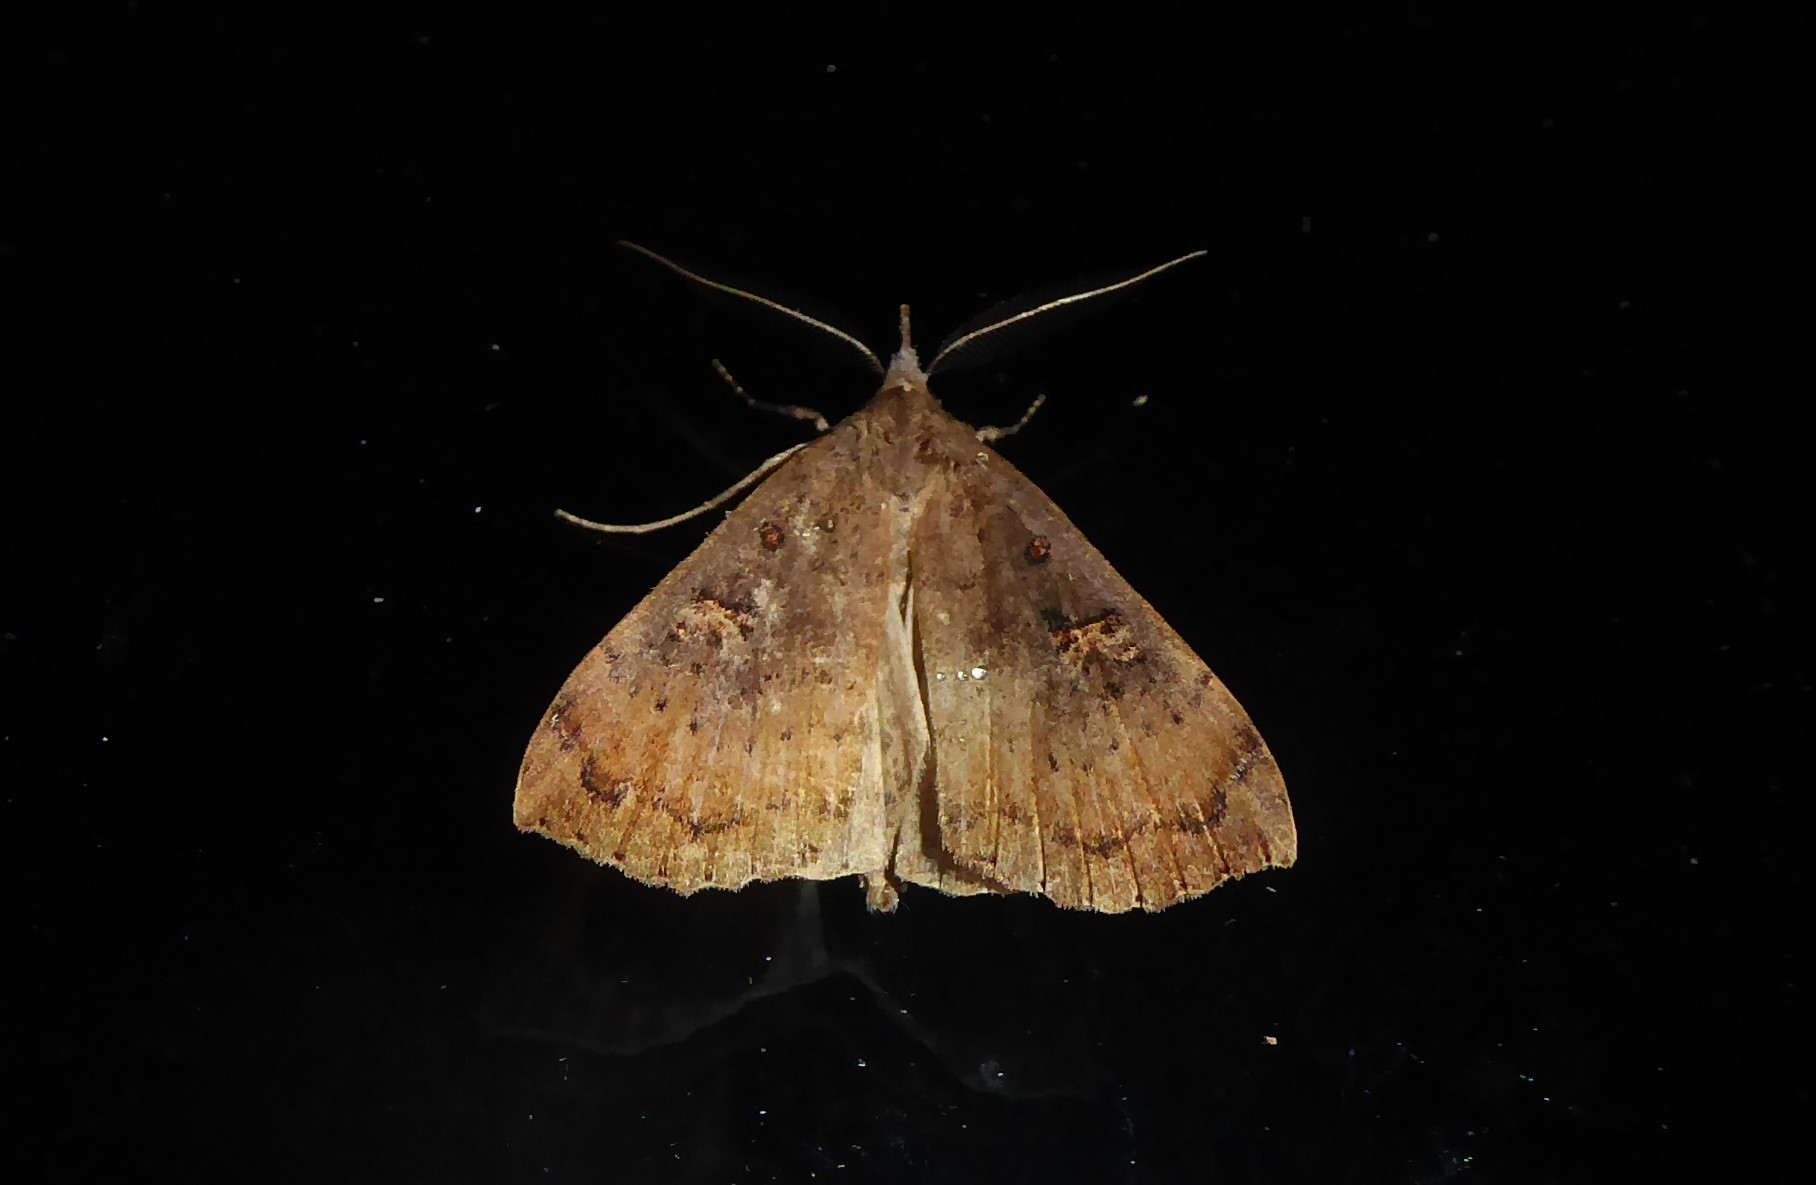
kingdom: Animalia
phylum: Arthropoda
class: Insecta
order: Lepidoptera
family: Erebidae
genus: Rhapsa
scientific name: Rhapsa scotosialis
